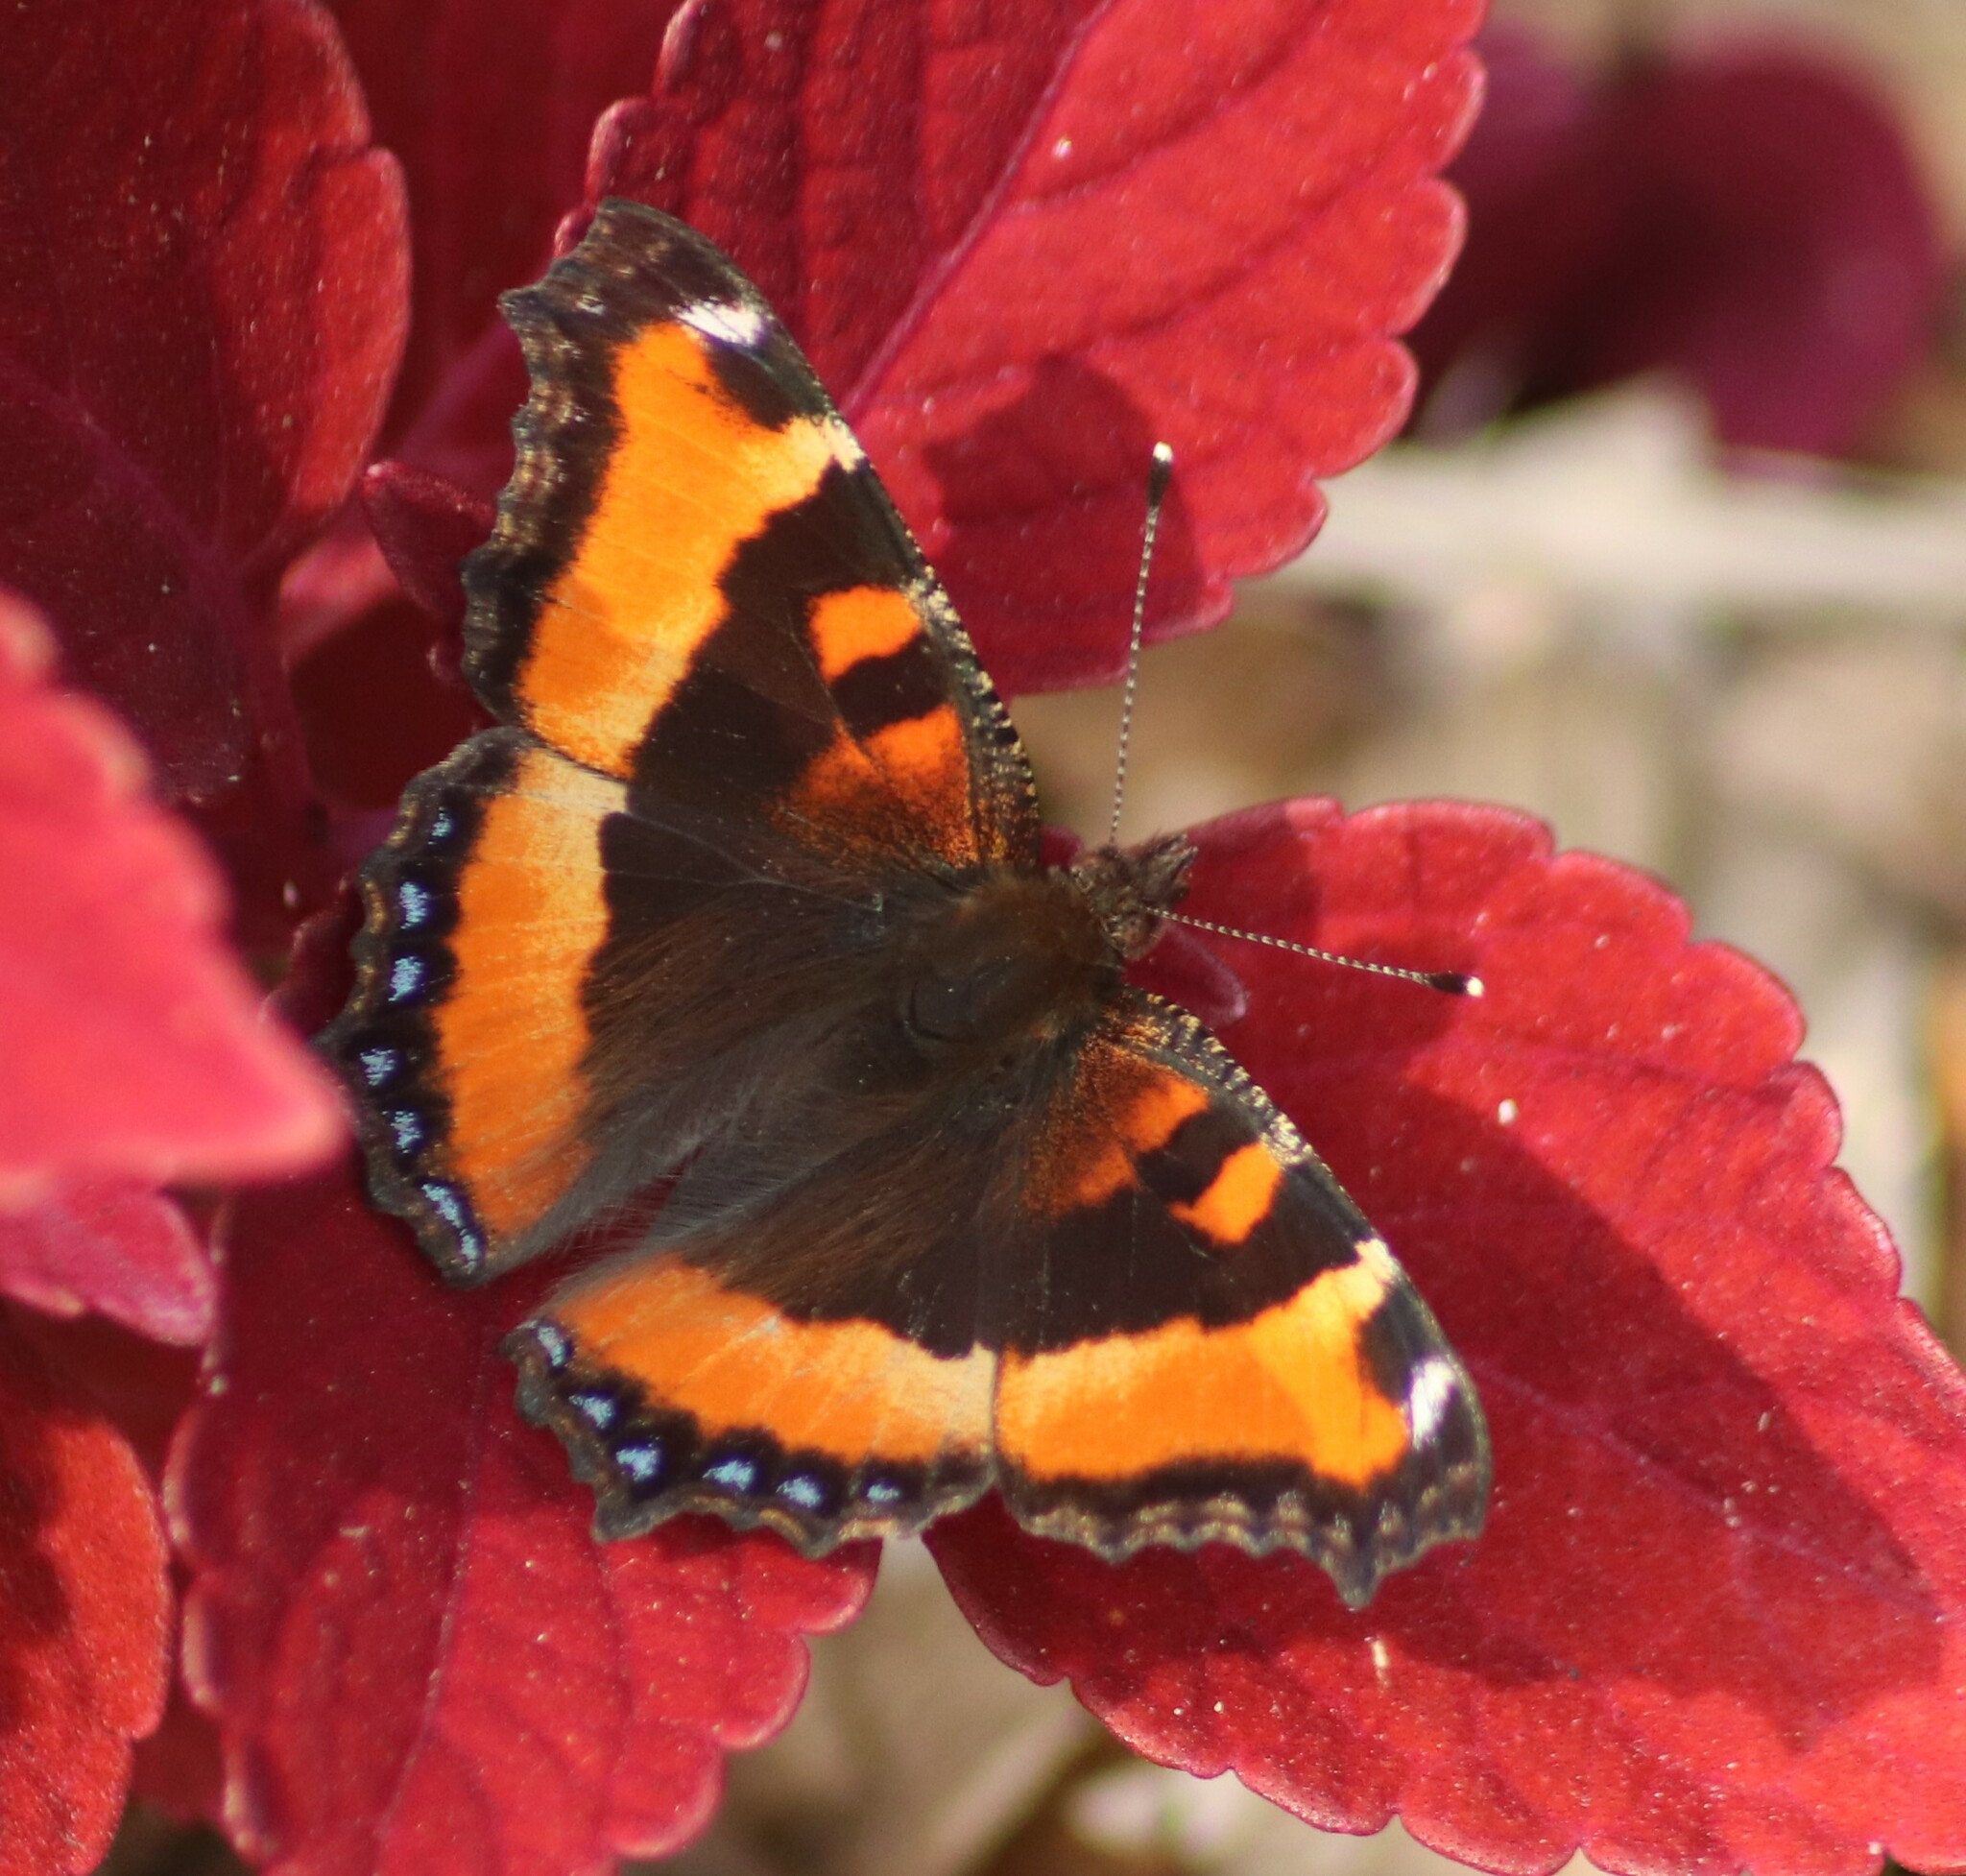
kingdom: Animalia
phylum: Arthropoda
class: Insecta
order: Lepidoptera
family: Nymphalidae
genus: Aglais
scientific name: Aglais milberti
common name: Milbert's tortoiseshell
